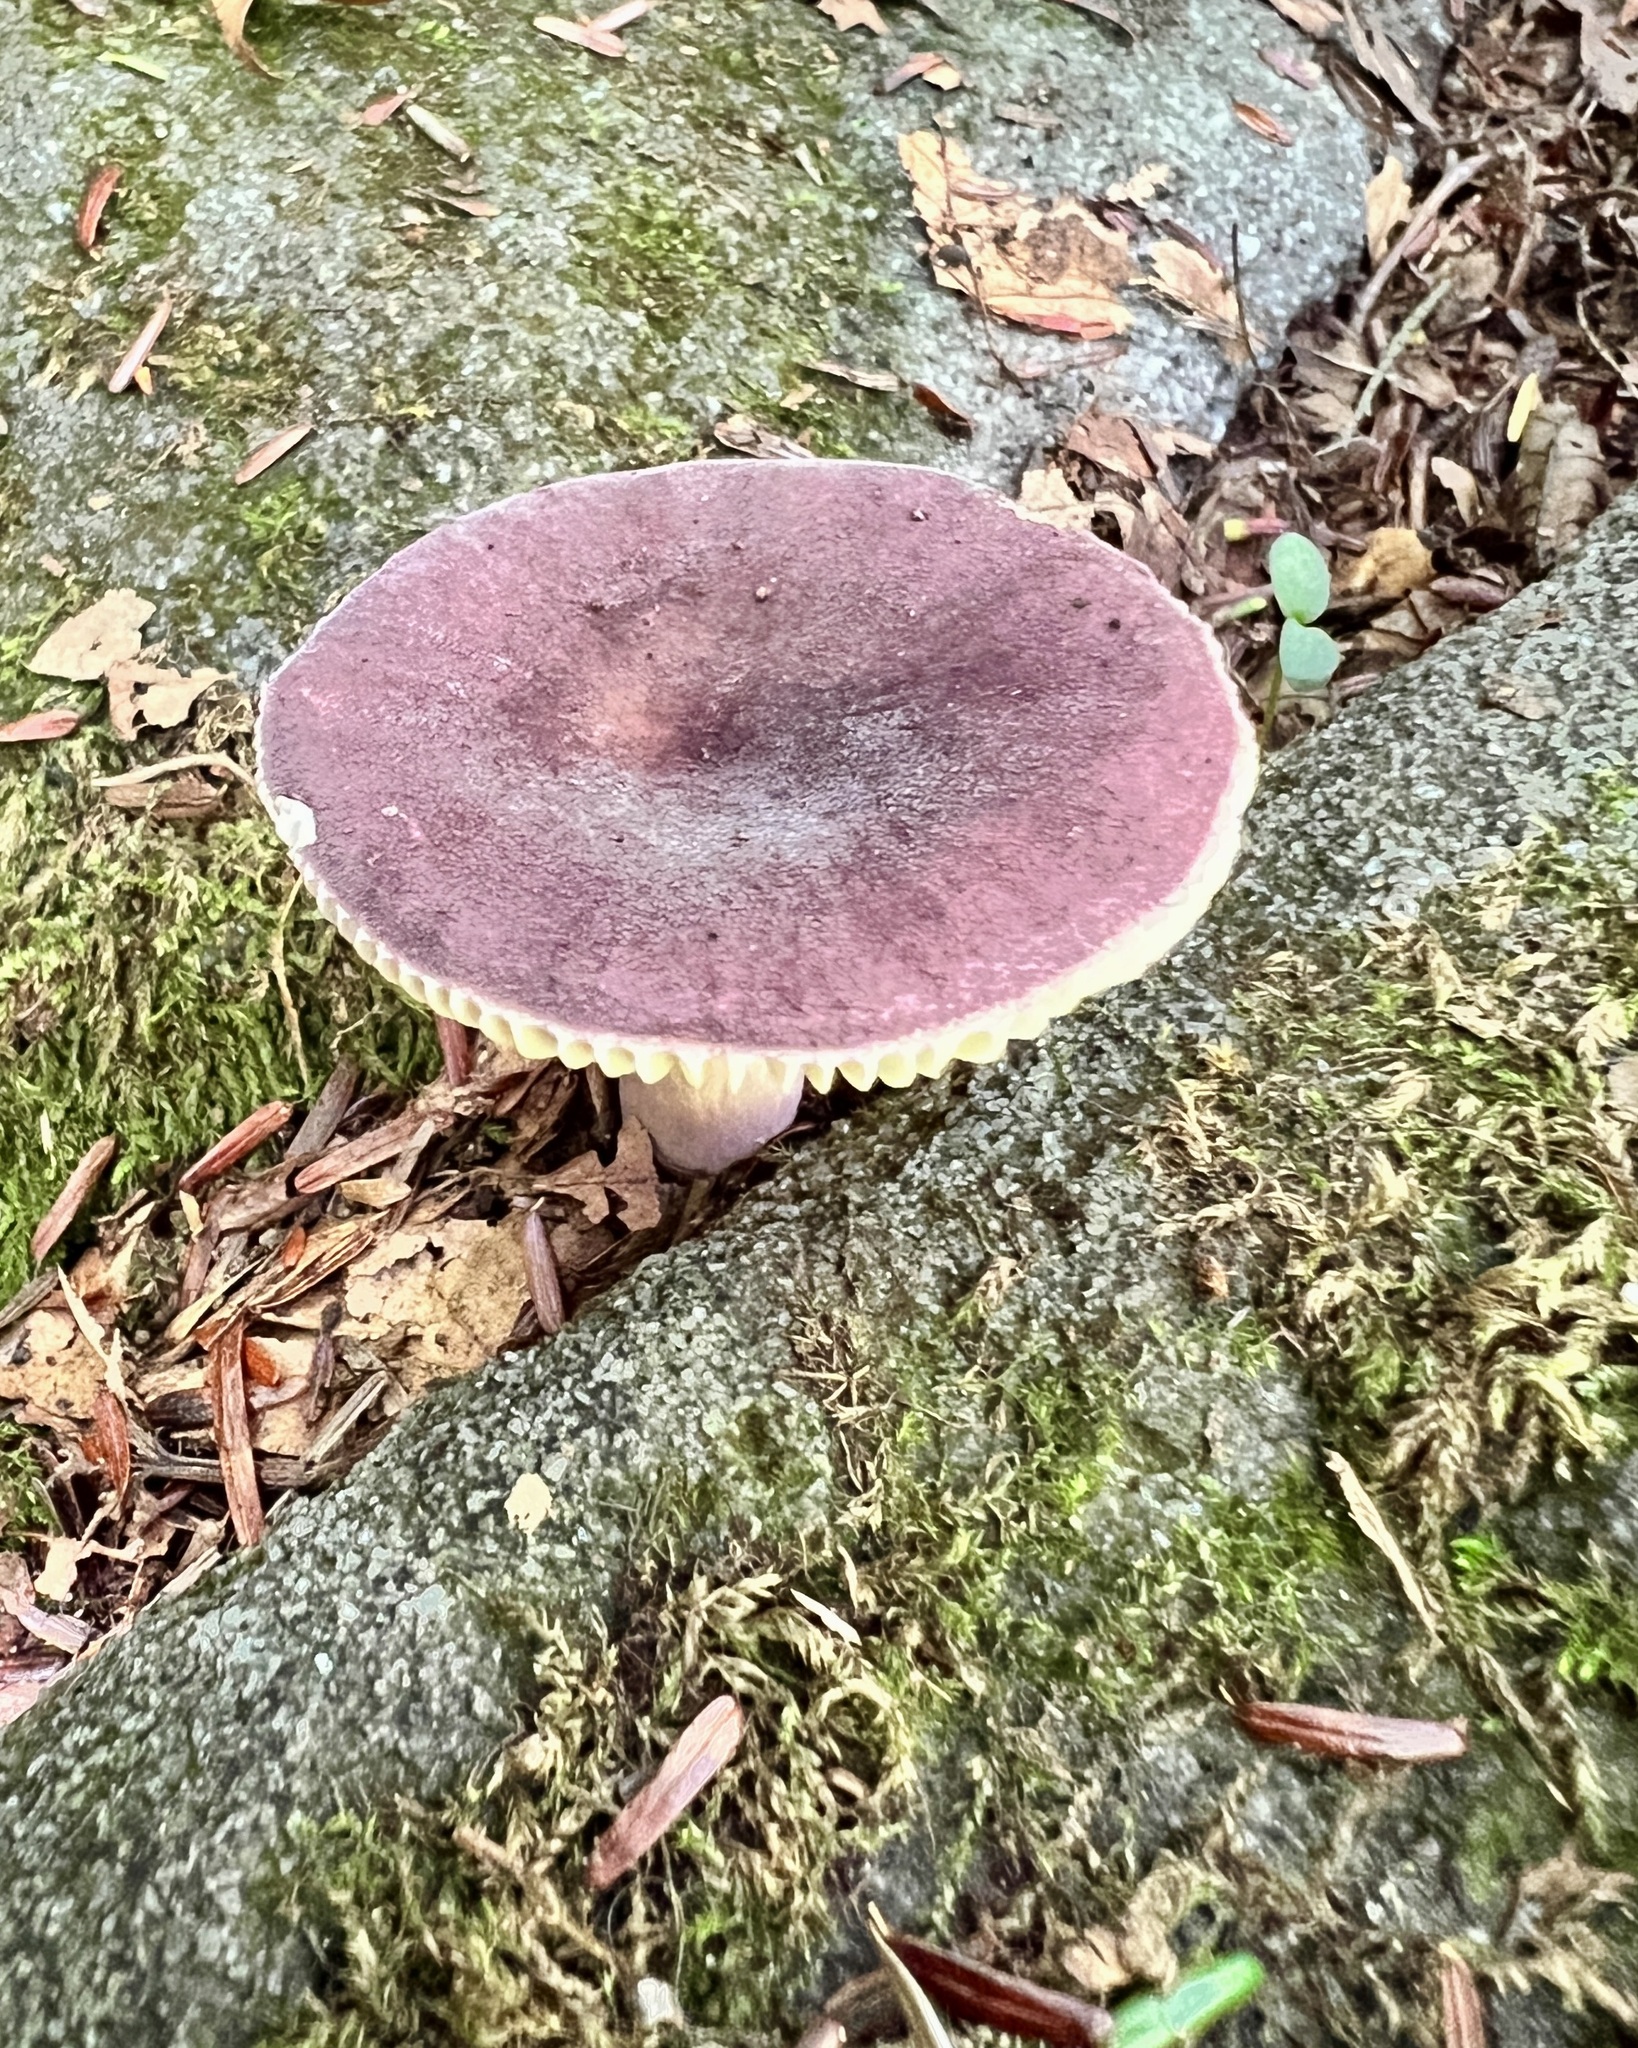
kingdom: Fungi
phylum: Basidiomycota
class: Agaricomycetes
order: Russulales
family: Russulaceae
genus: Russula
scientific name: Russula mariae
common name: Purple-bloom russula
